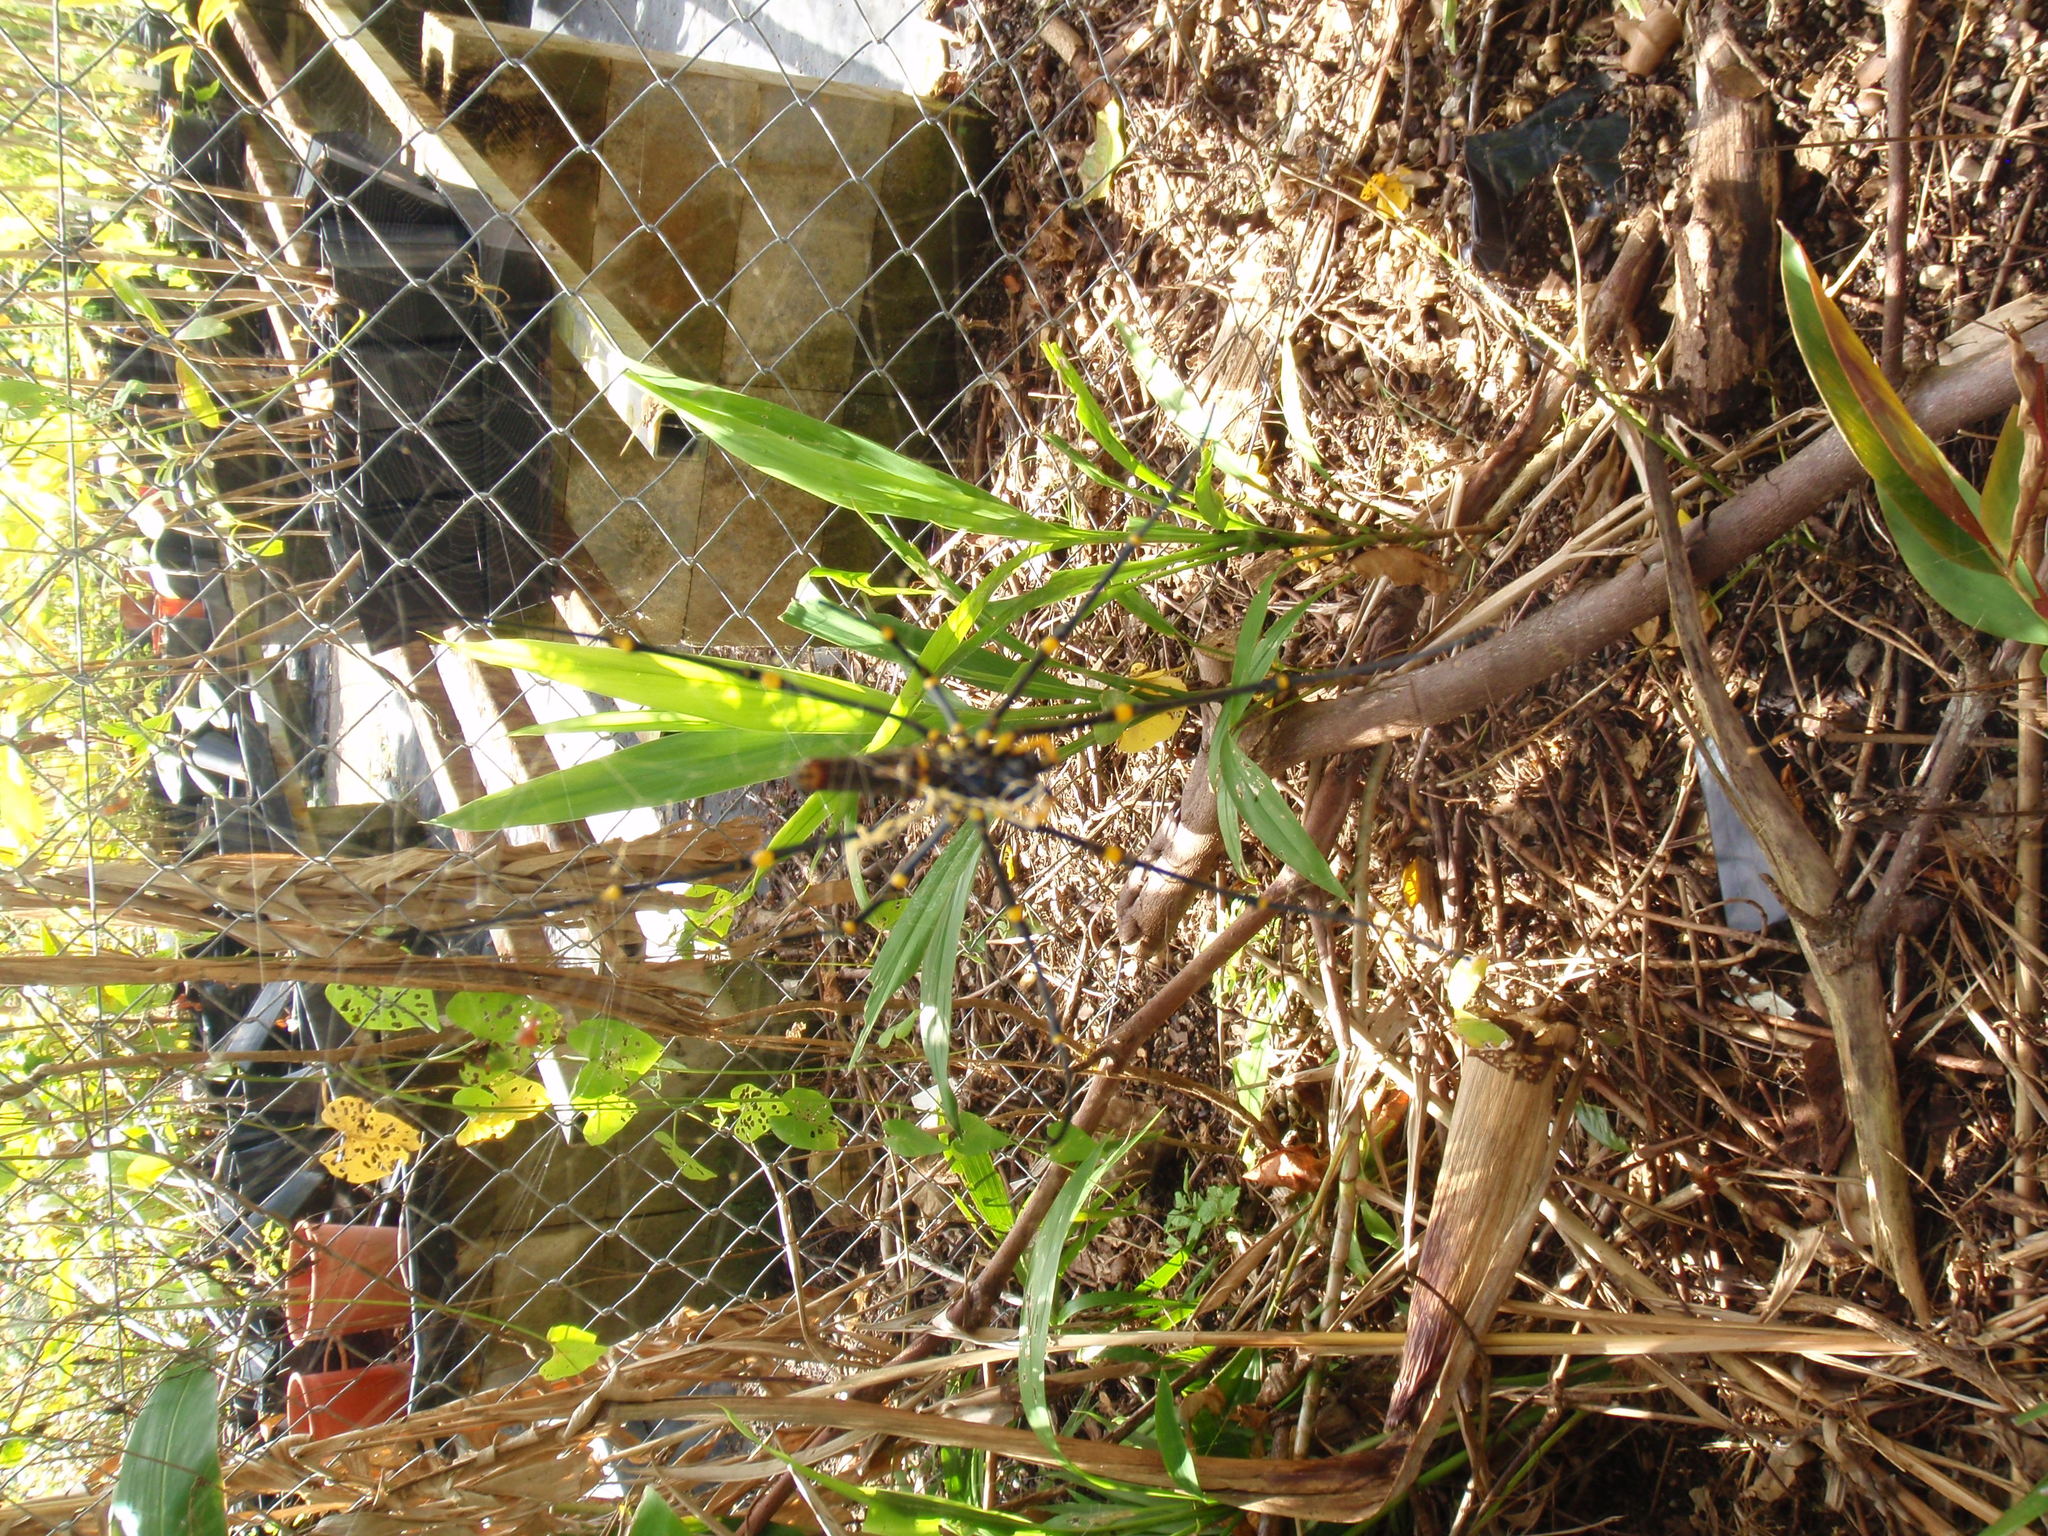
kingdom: Animalia
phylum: Arthropoda
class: Arachnida
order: Araneae
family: Araneidae
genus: Nephila
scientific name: Nephila pilipes
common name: Giant golden orb weaver
